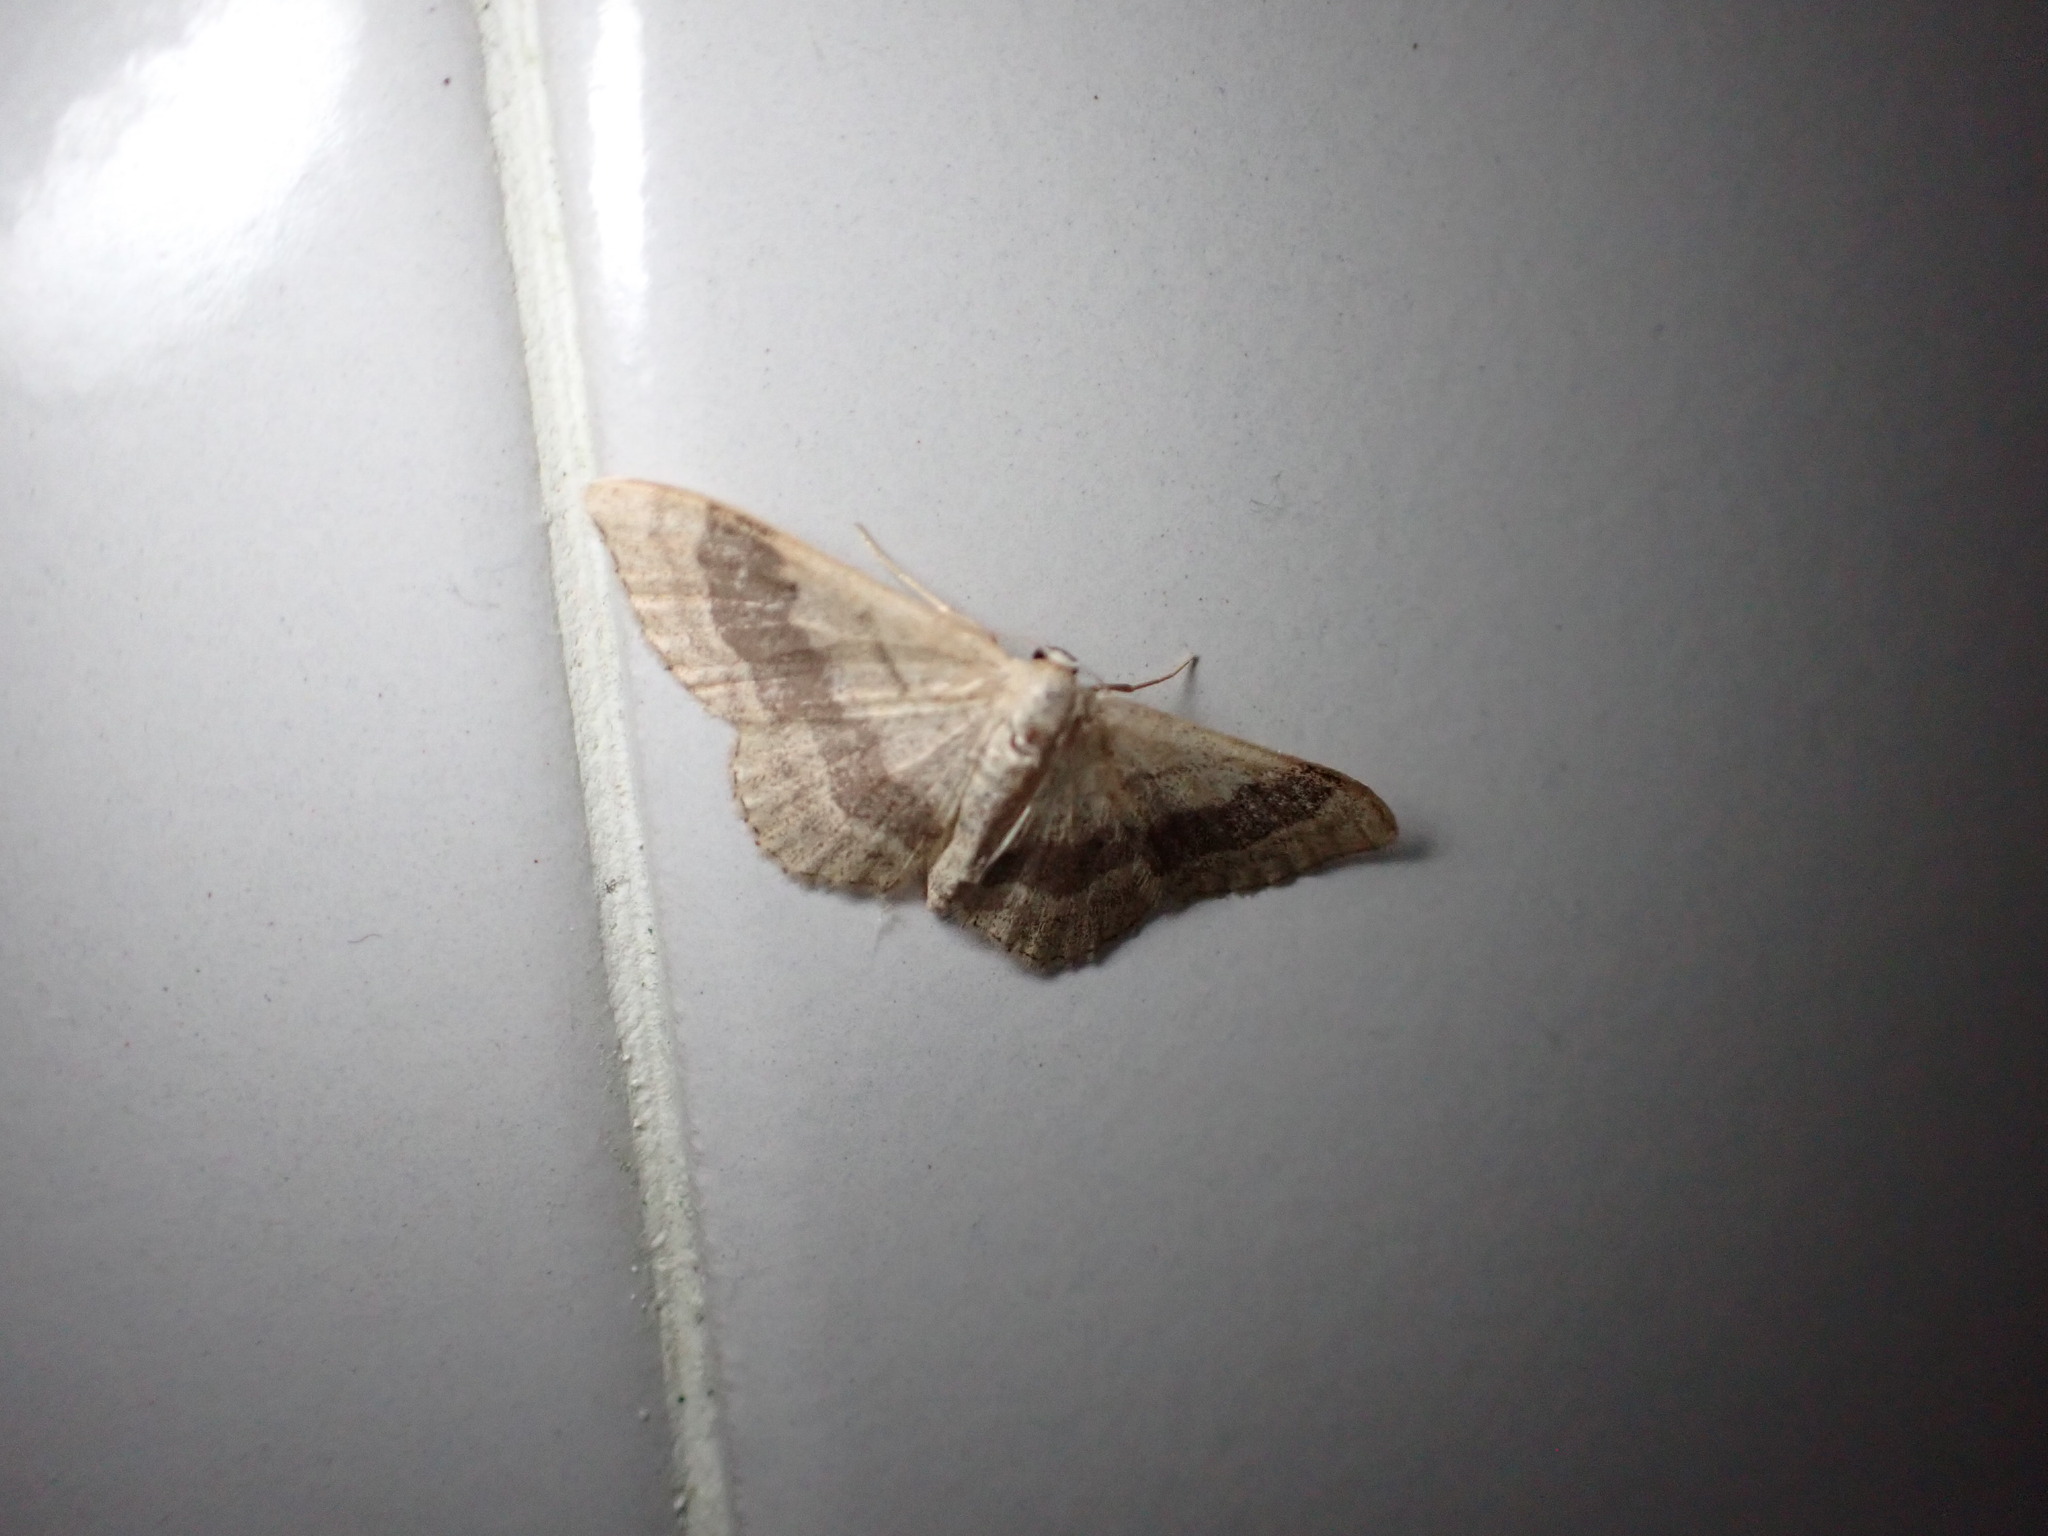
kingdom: Animalia
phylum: Arthropoda
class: Insecta
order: Lepidoptera
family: Geometridae
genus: Idaea
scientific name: Idaea aversata
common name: Riband wave
